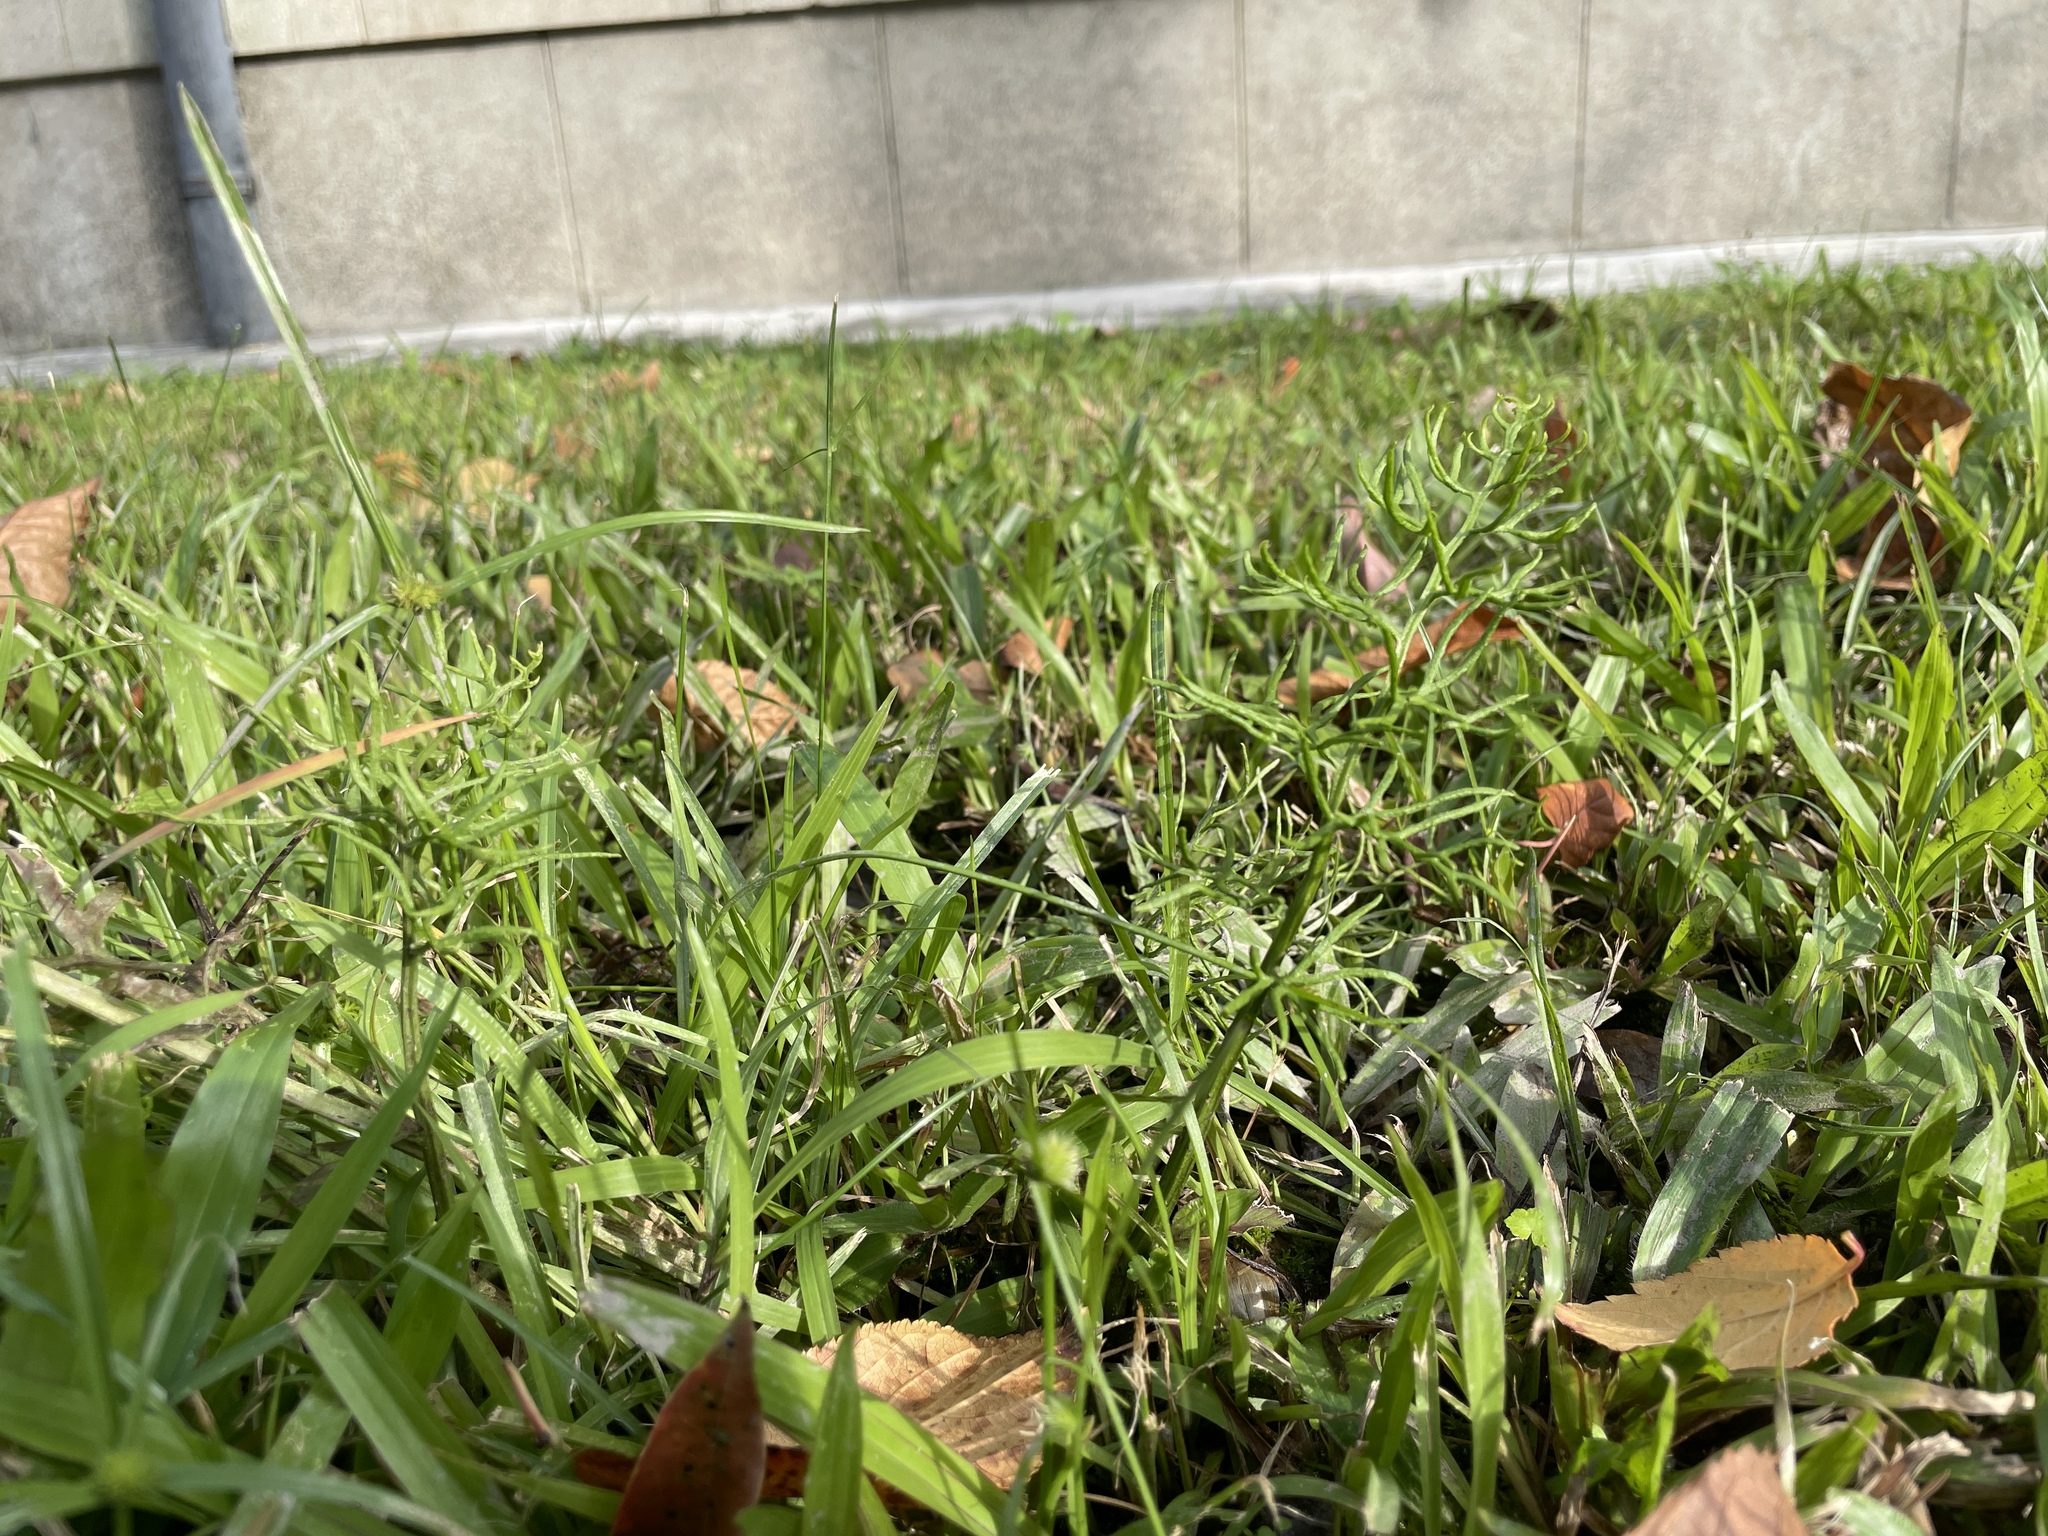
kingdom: Plantae
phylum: Tracheophyta
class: Polypodiopsida
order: Polypodiales
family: Pteridaceae
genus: Ceratopteris
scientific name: Ceratopteris thalictroides
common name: Water fern
